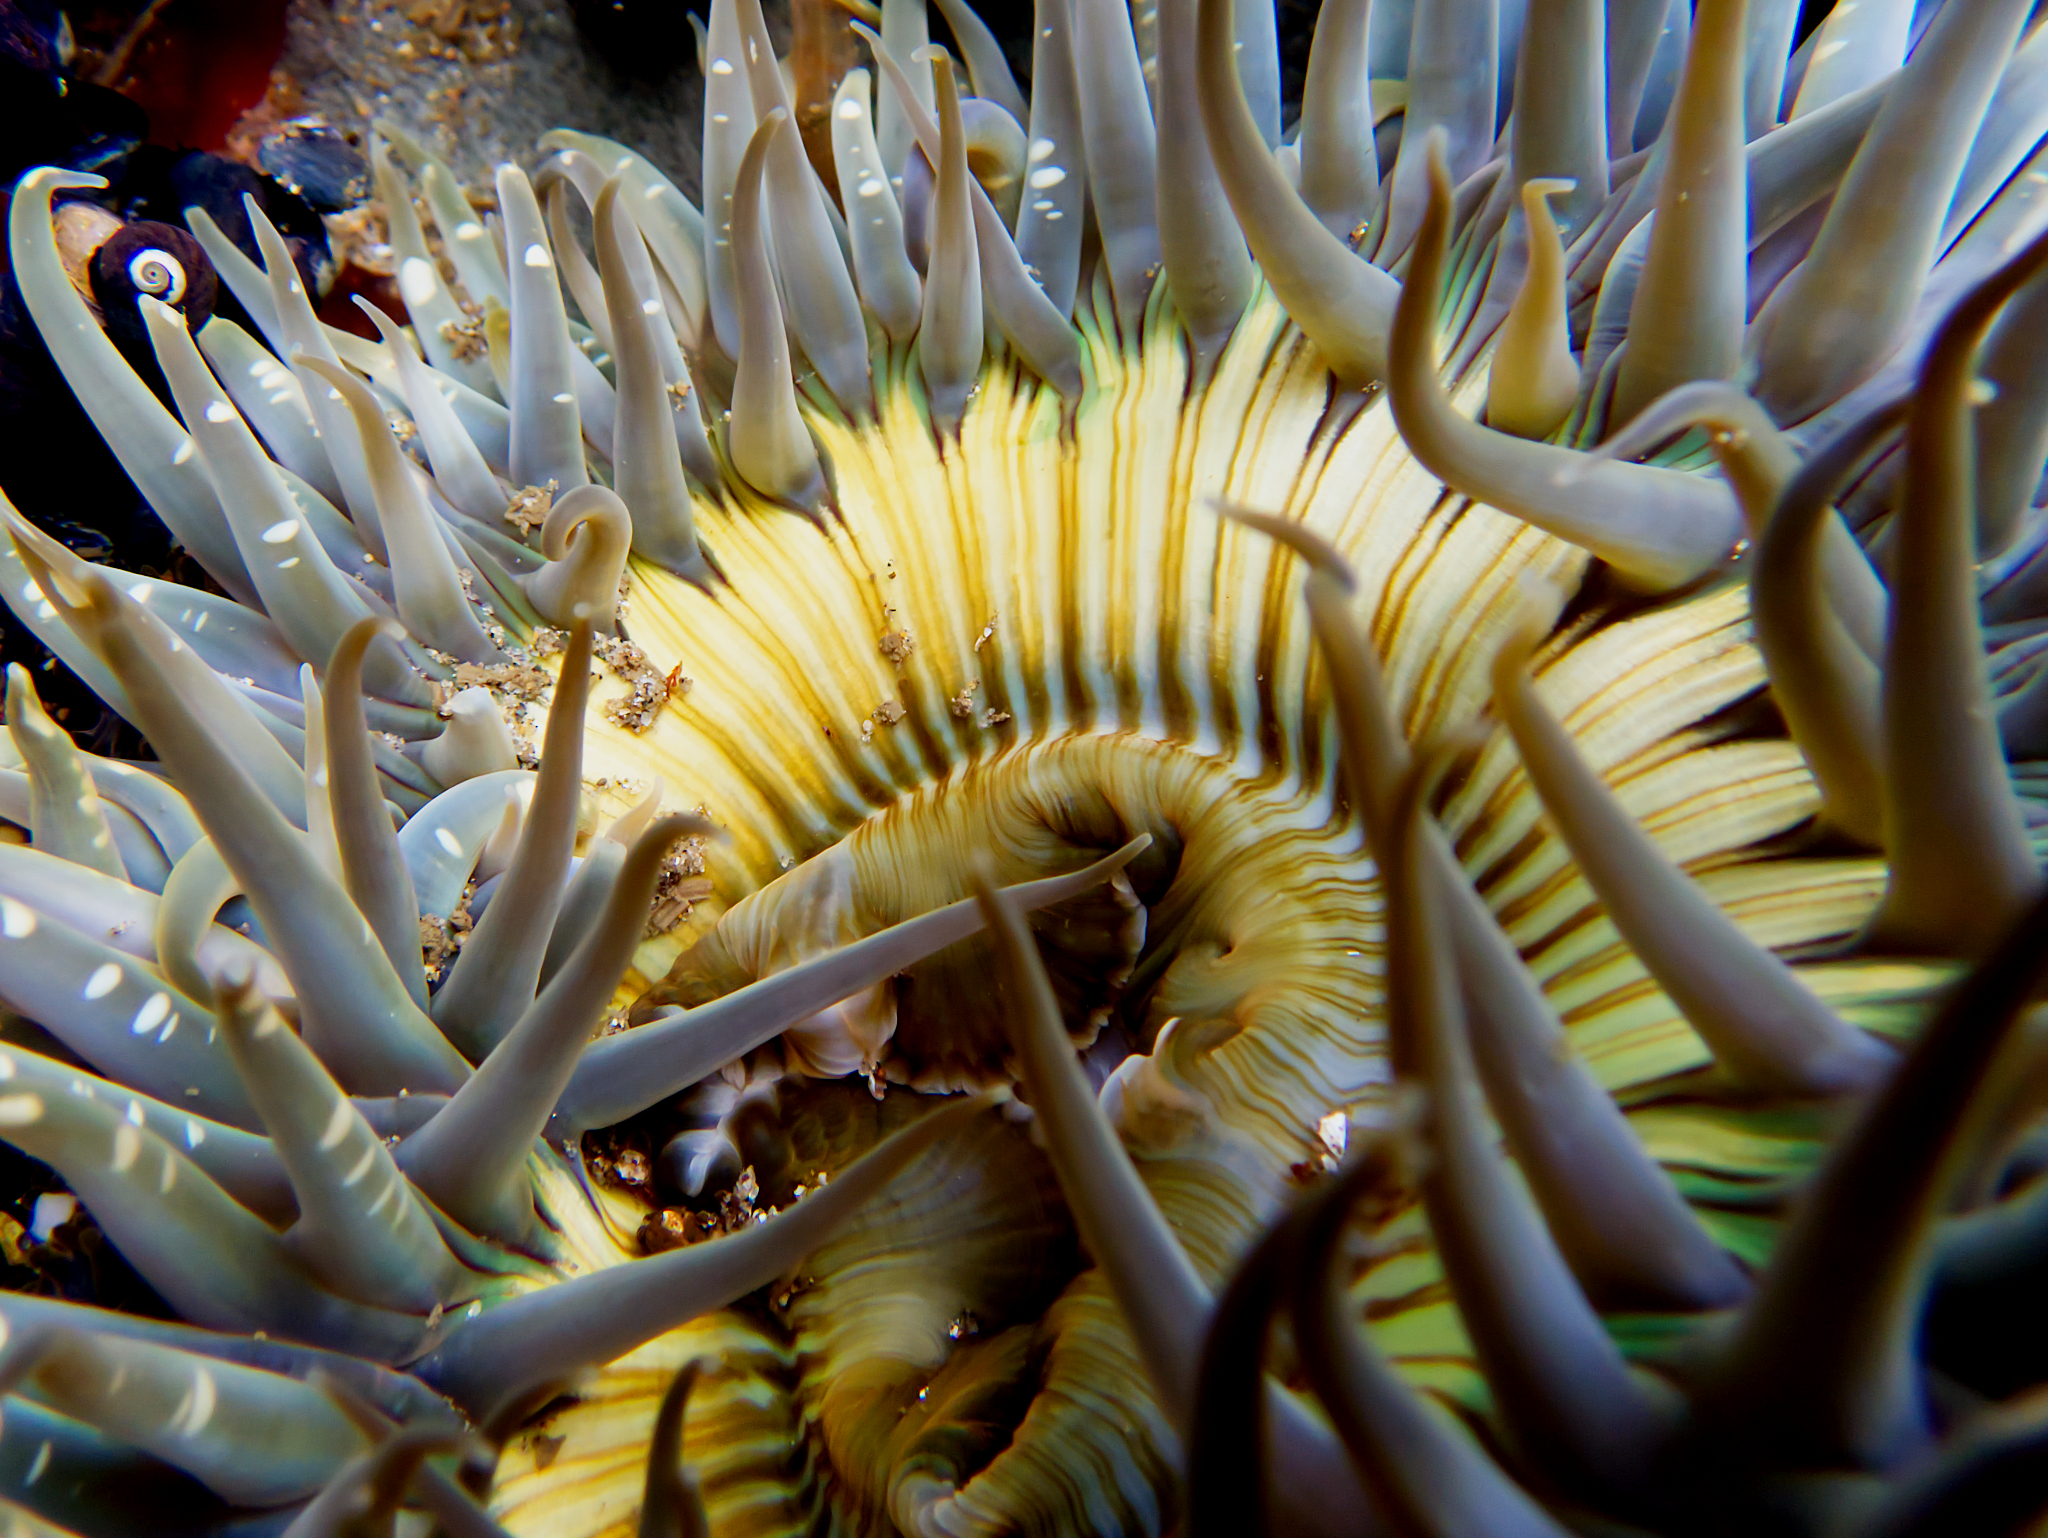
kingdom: Animalia
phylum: Cnidaria
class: Anthozoa
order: Actiniaria
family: Actiniidae
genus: Anthopleura
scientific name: Anthopleura sola
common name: Sun anemone
